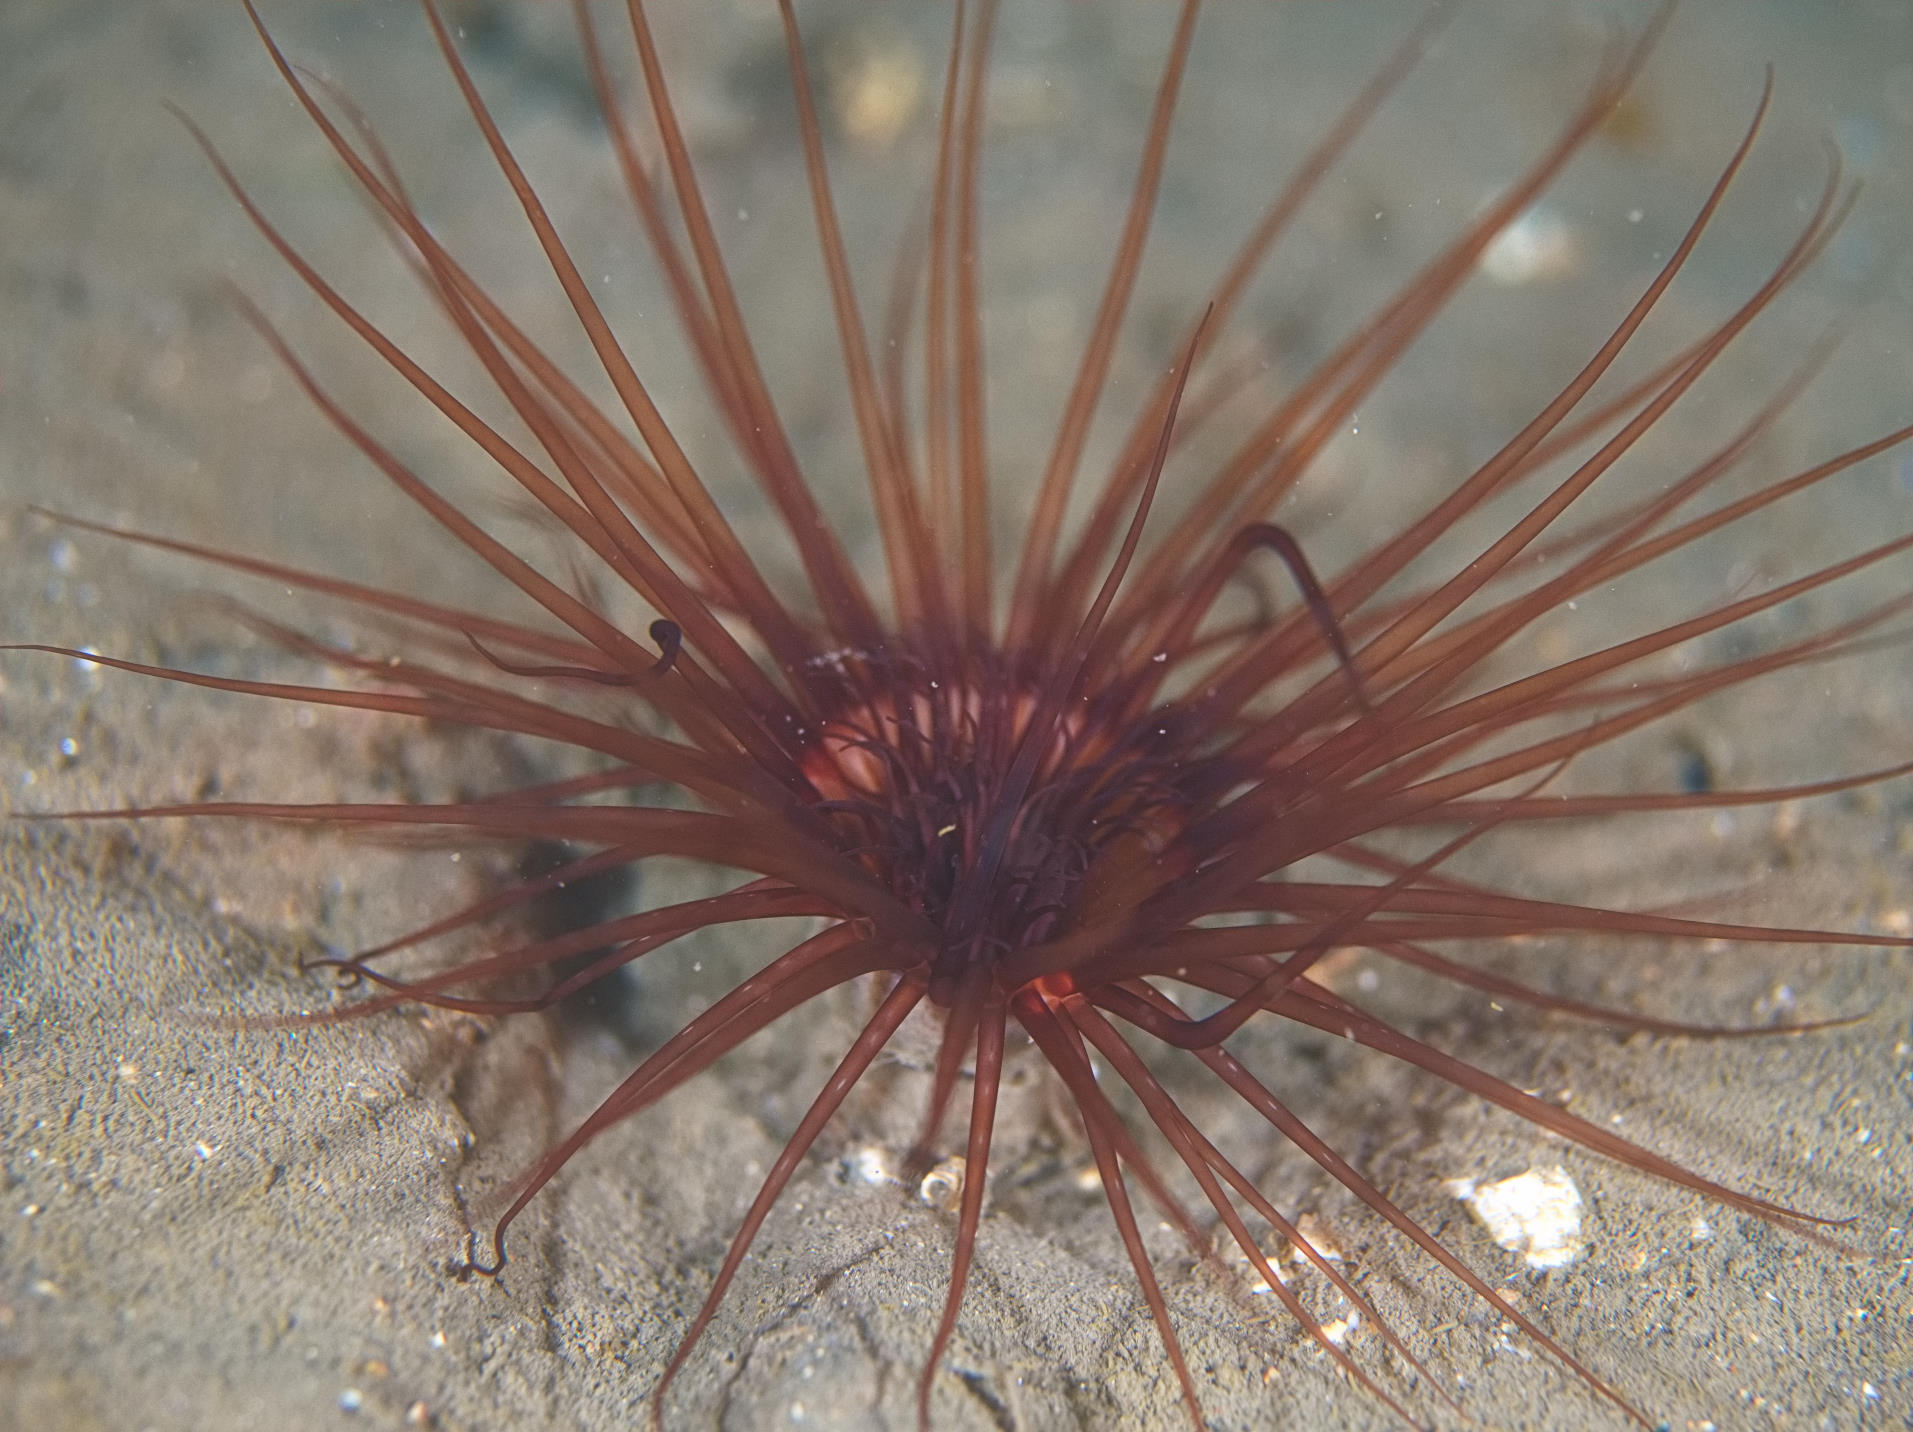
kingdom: Animalia
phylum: Cnidaria
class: Anthozoa
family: Cerianthidae
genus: Synarachnactis
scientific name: Synarachnactis
